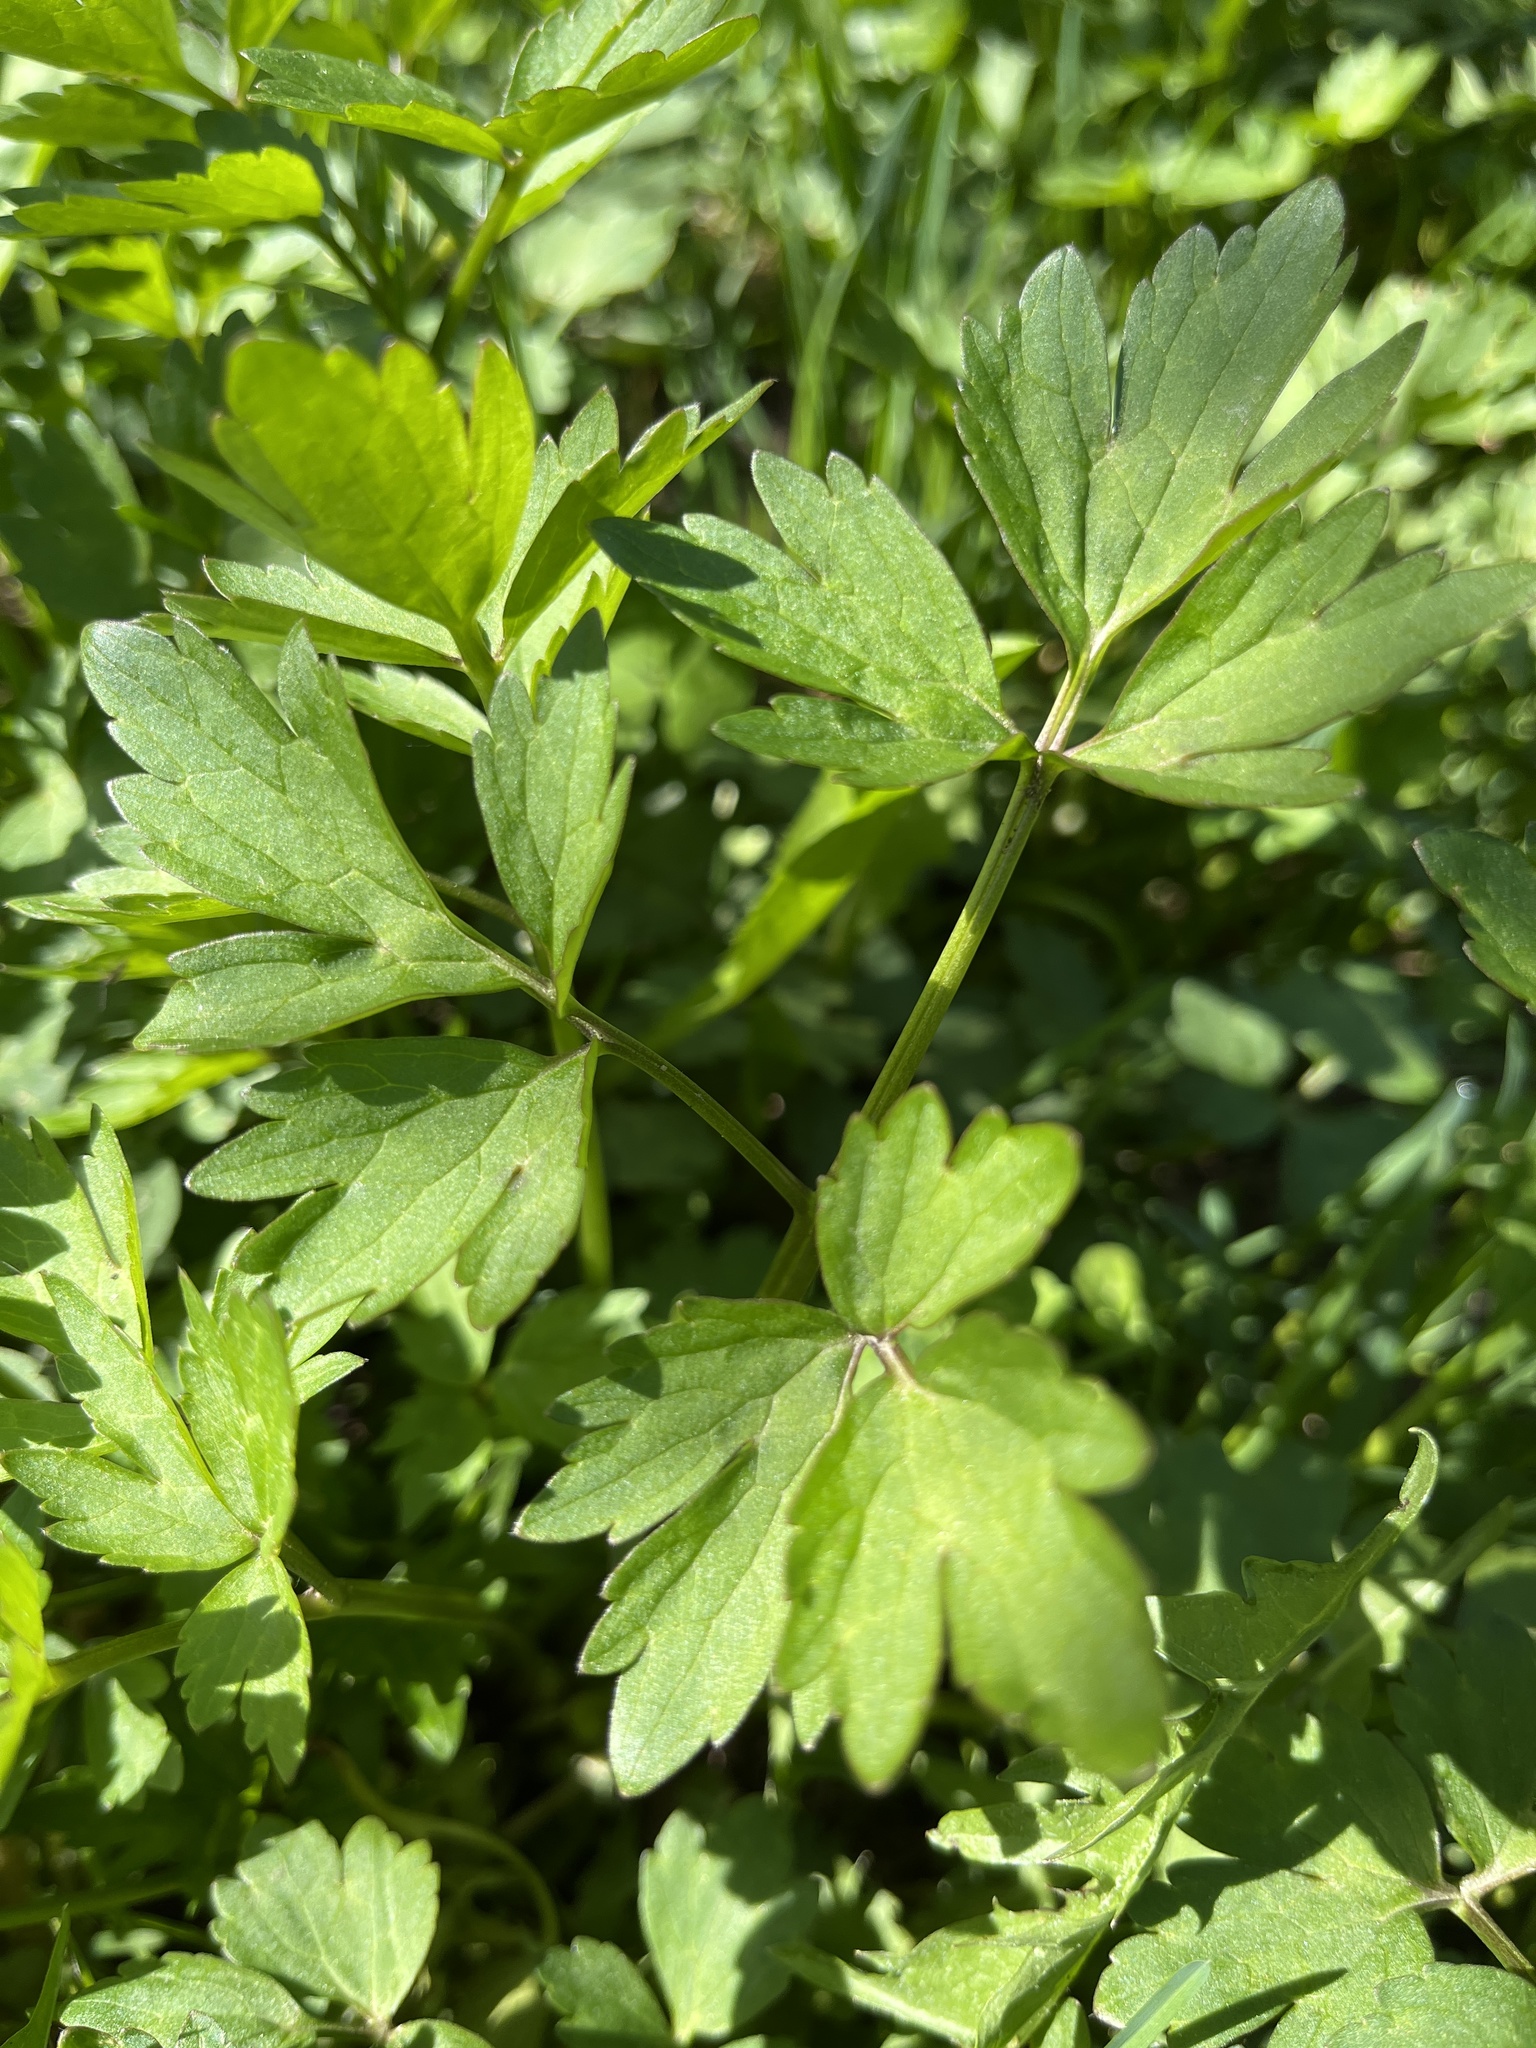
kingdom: Plantae
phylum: Tracheophyta
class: Magnoliopsida
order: Ranunculales
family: Ranunculaceae
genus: Ranunculus
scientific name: Ranunculus repens
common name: Creeping buttercup
